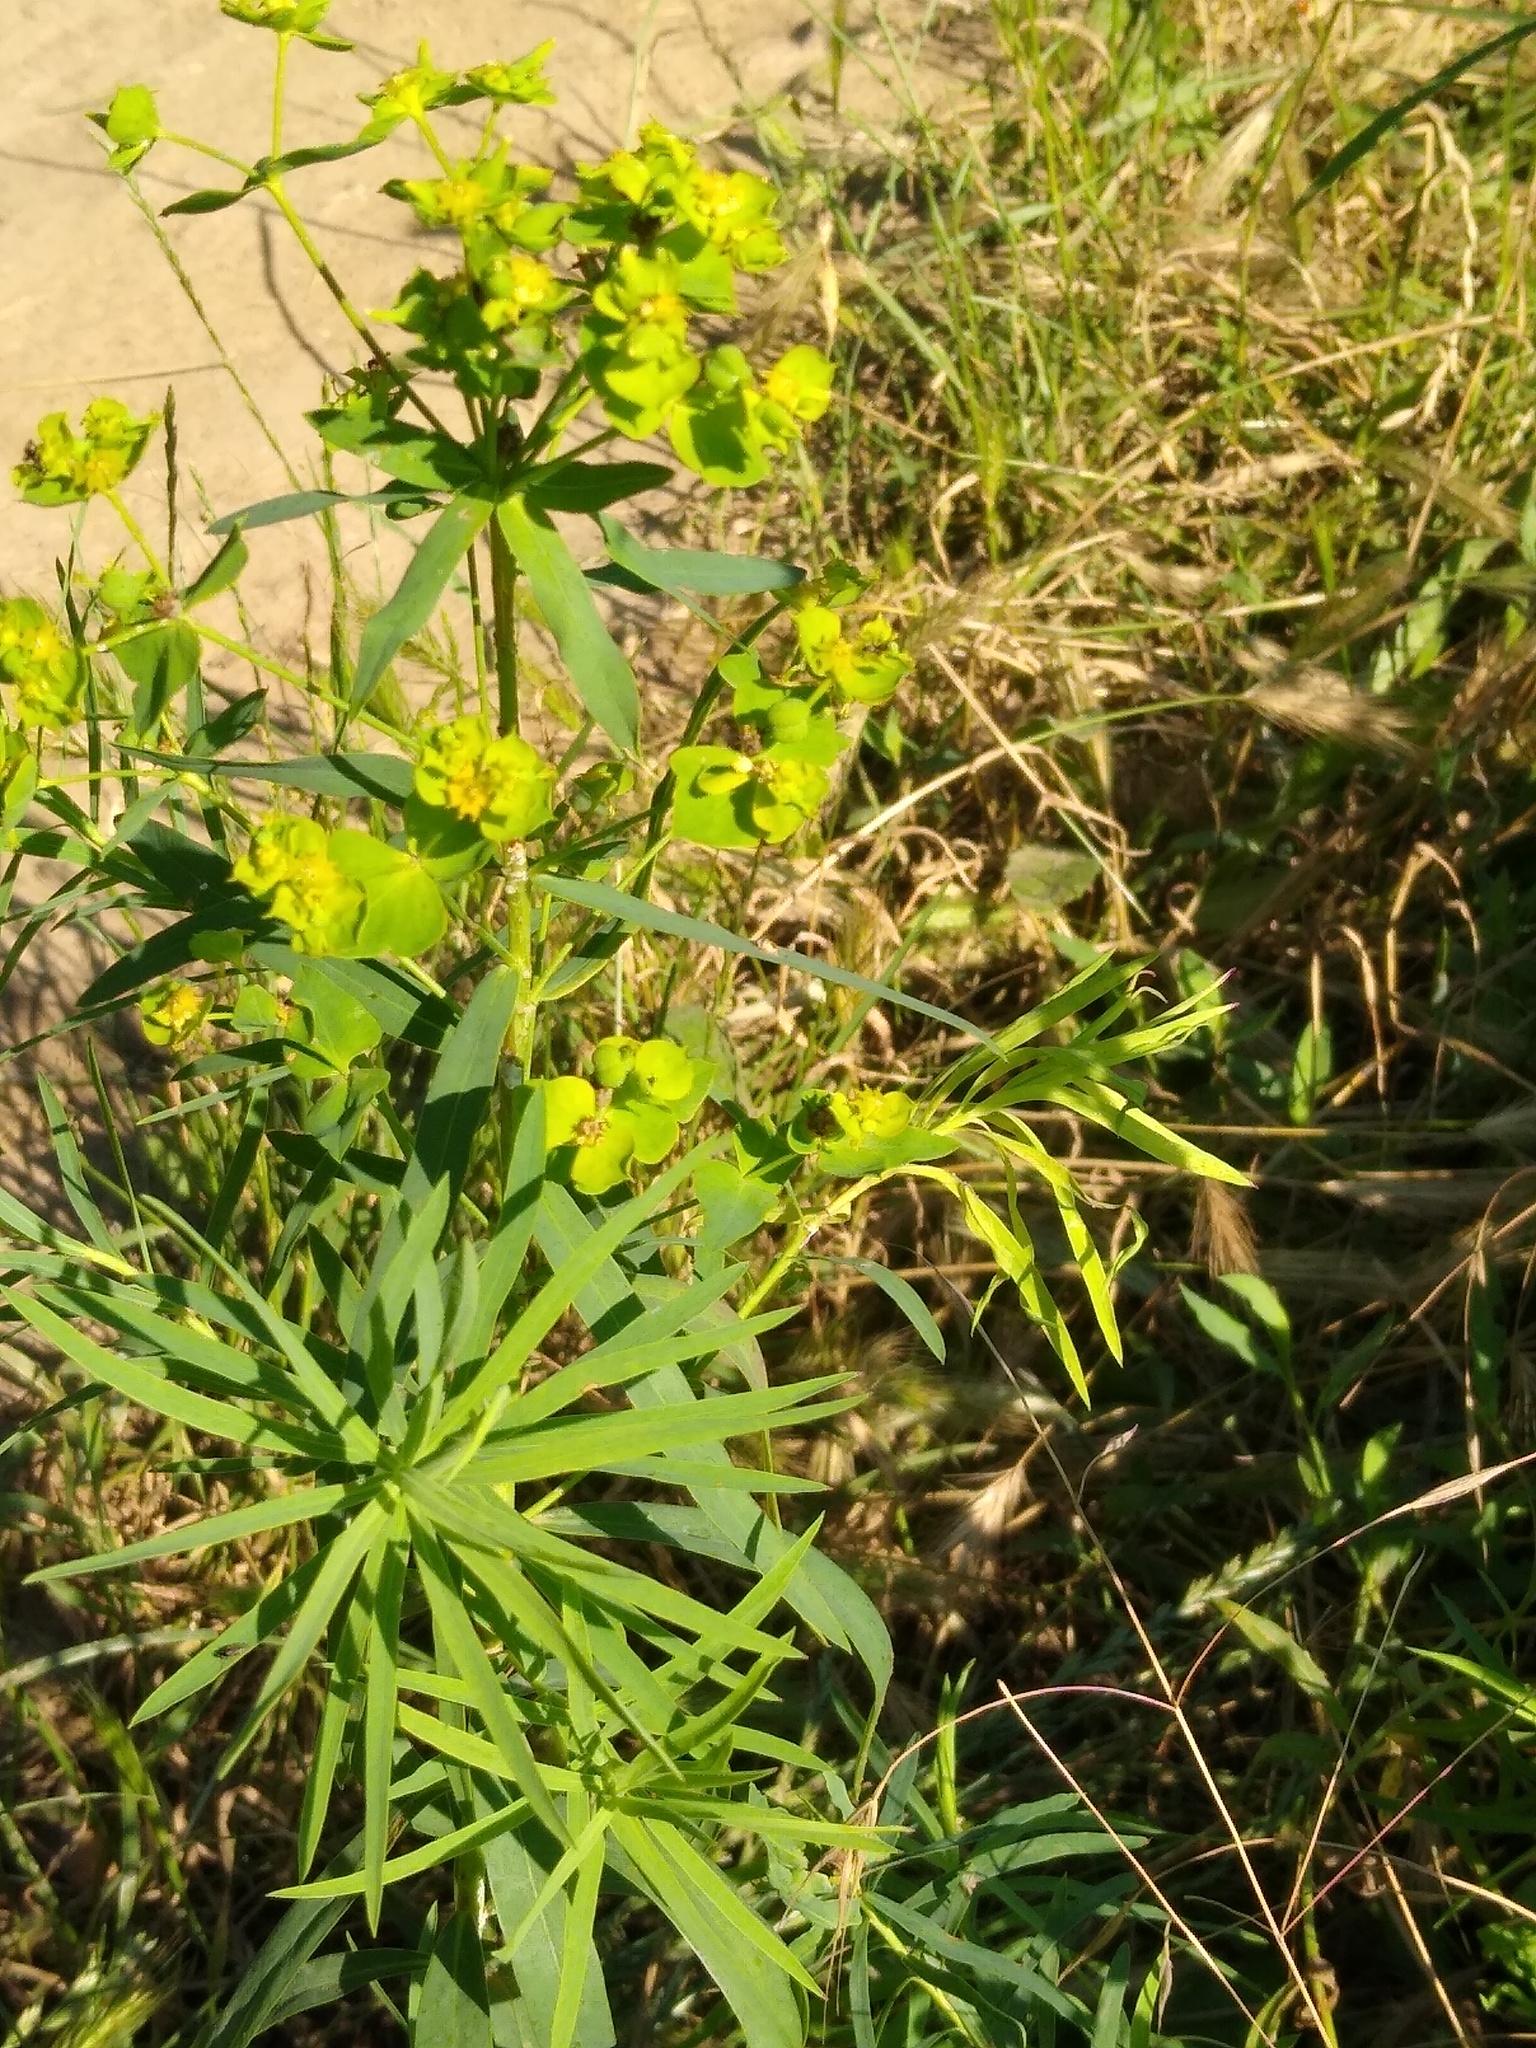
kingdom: Plantae
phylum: Tracheophyta
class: Magnoliopsida
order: Malpighiales
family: Euphorbiaceae
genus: Euphorbia
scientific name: Euphorbia virgata
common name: Leafy spurge
